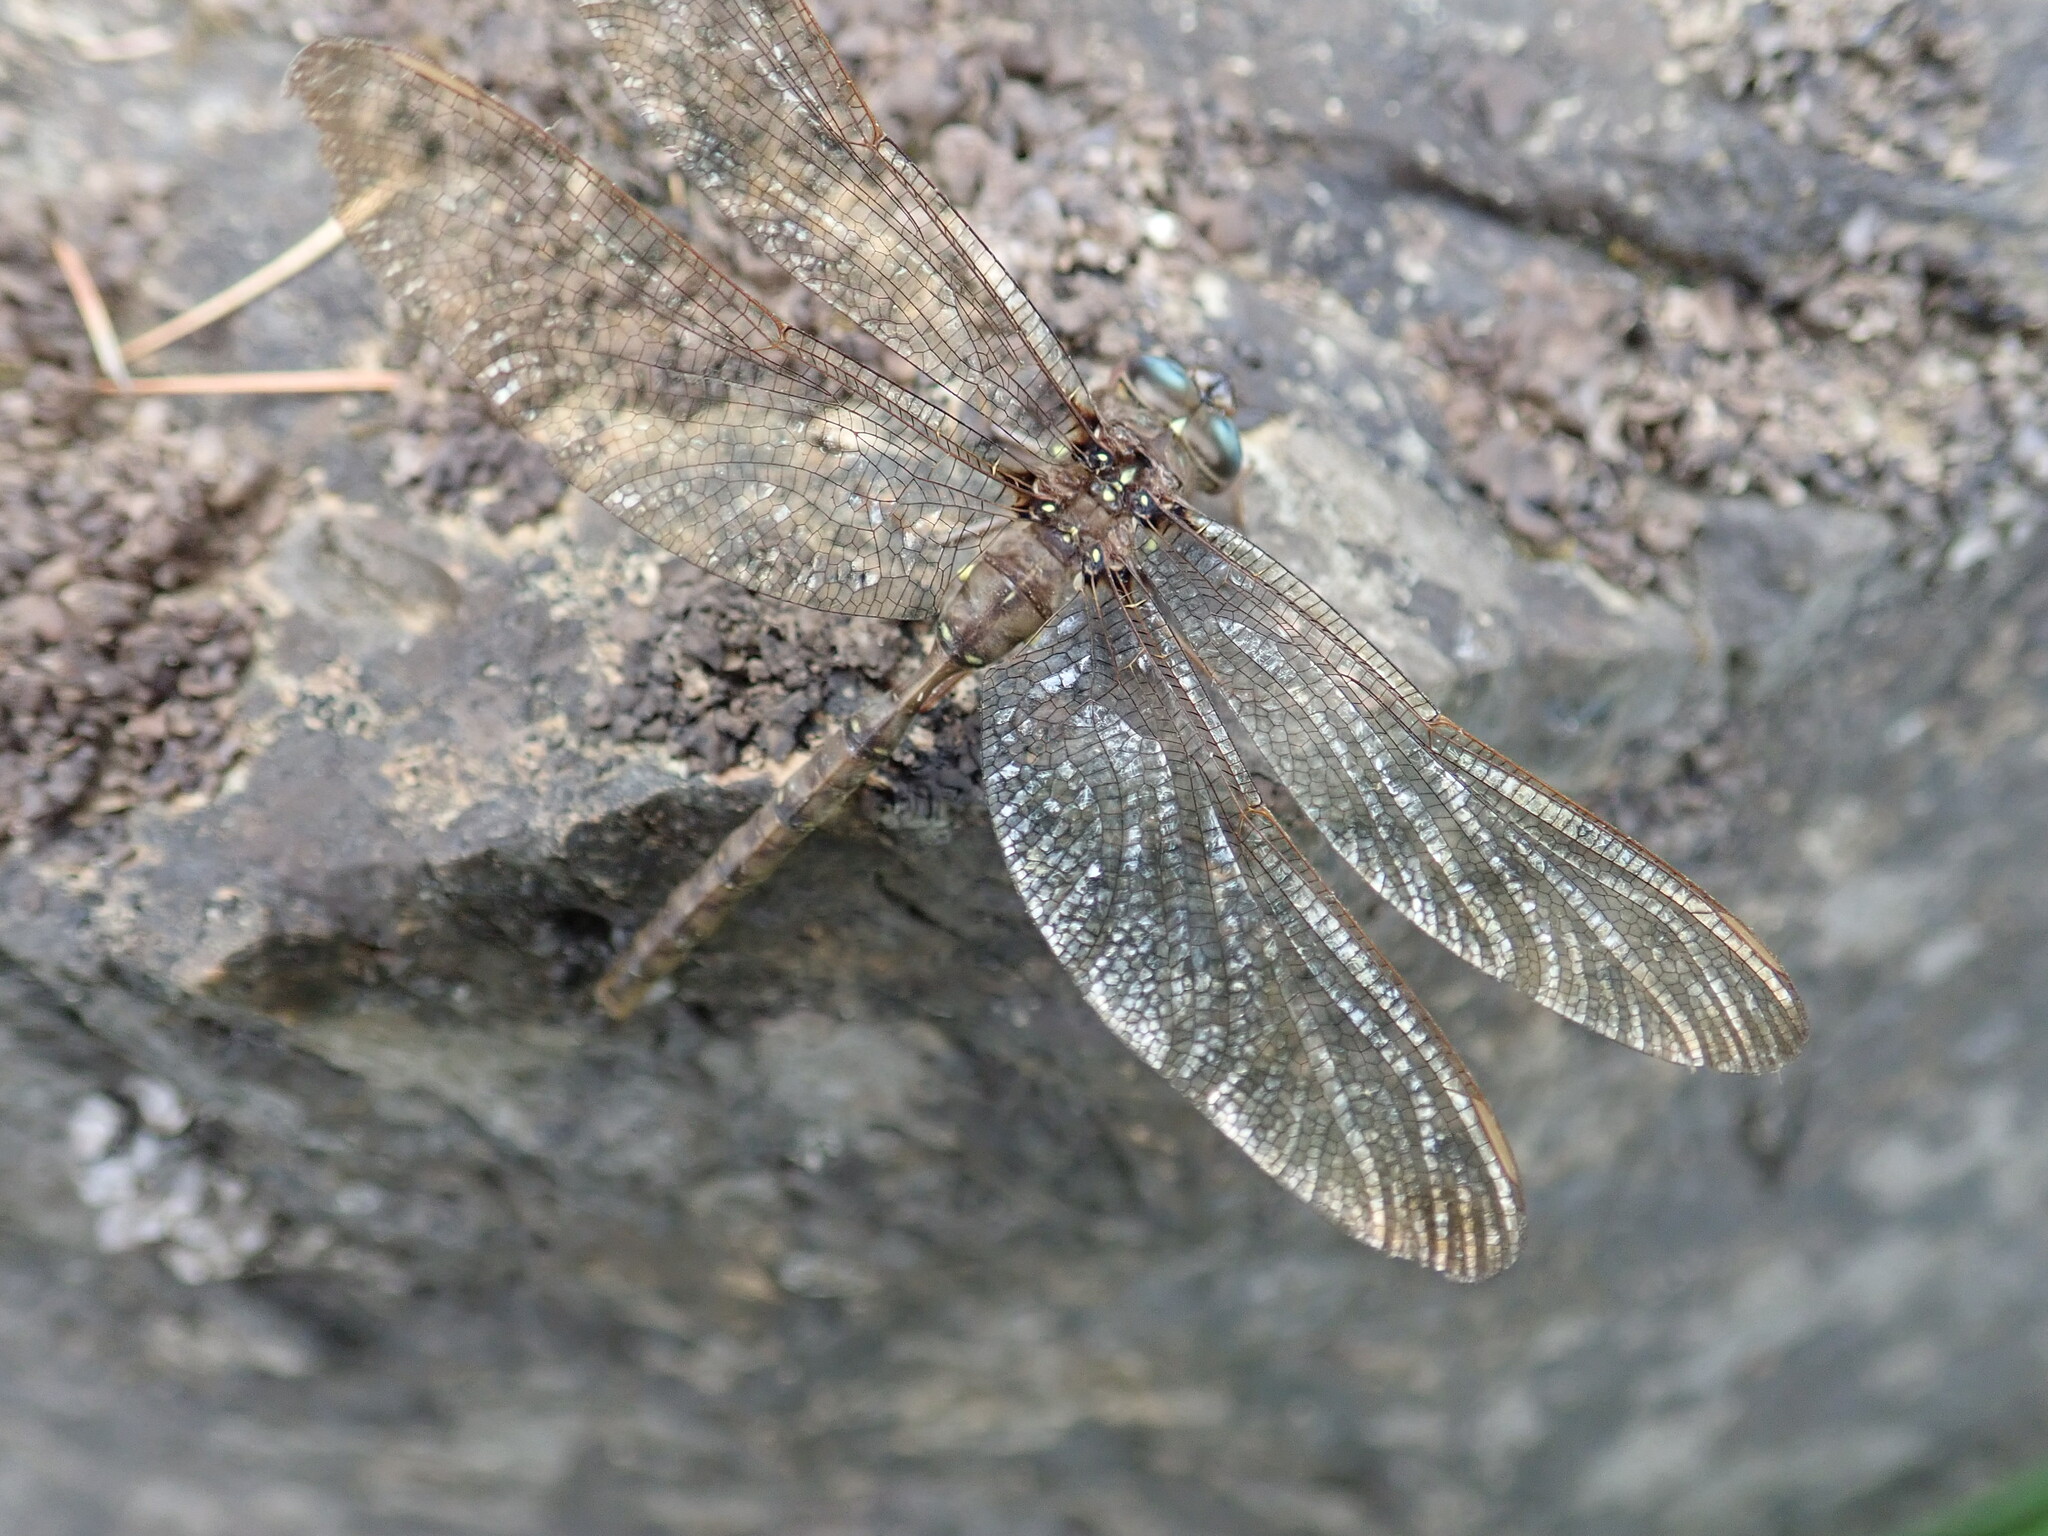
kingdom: Animalia
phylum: Arthropoda
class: Insecta
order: Odonata
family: Aeshnidae
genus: Boyeria
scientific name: Boyeria vinosa
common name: Fawn darner
